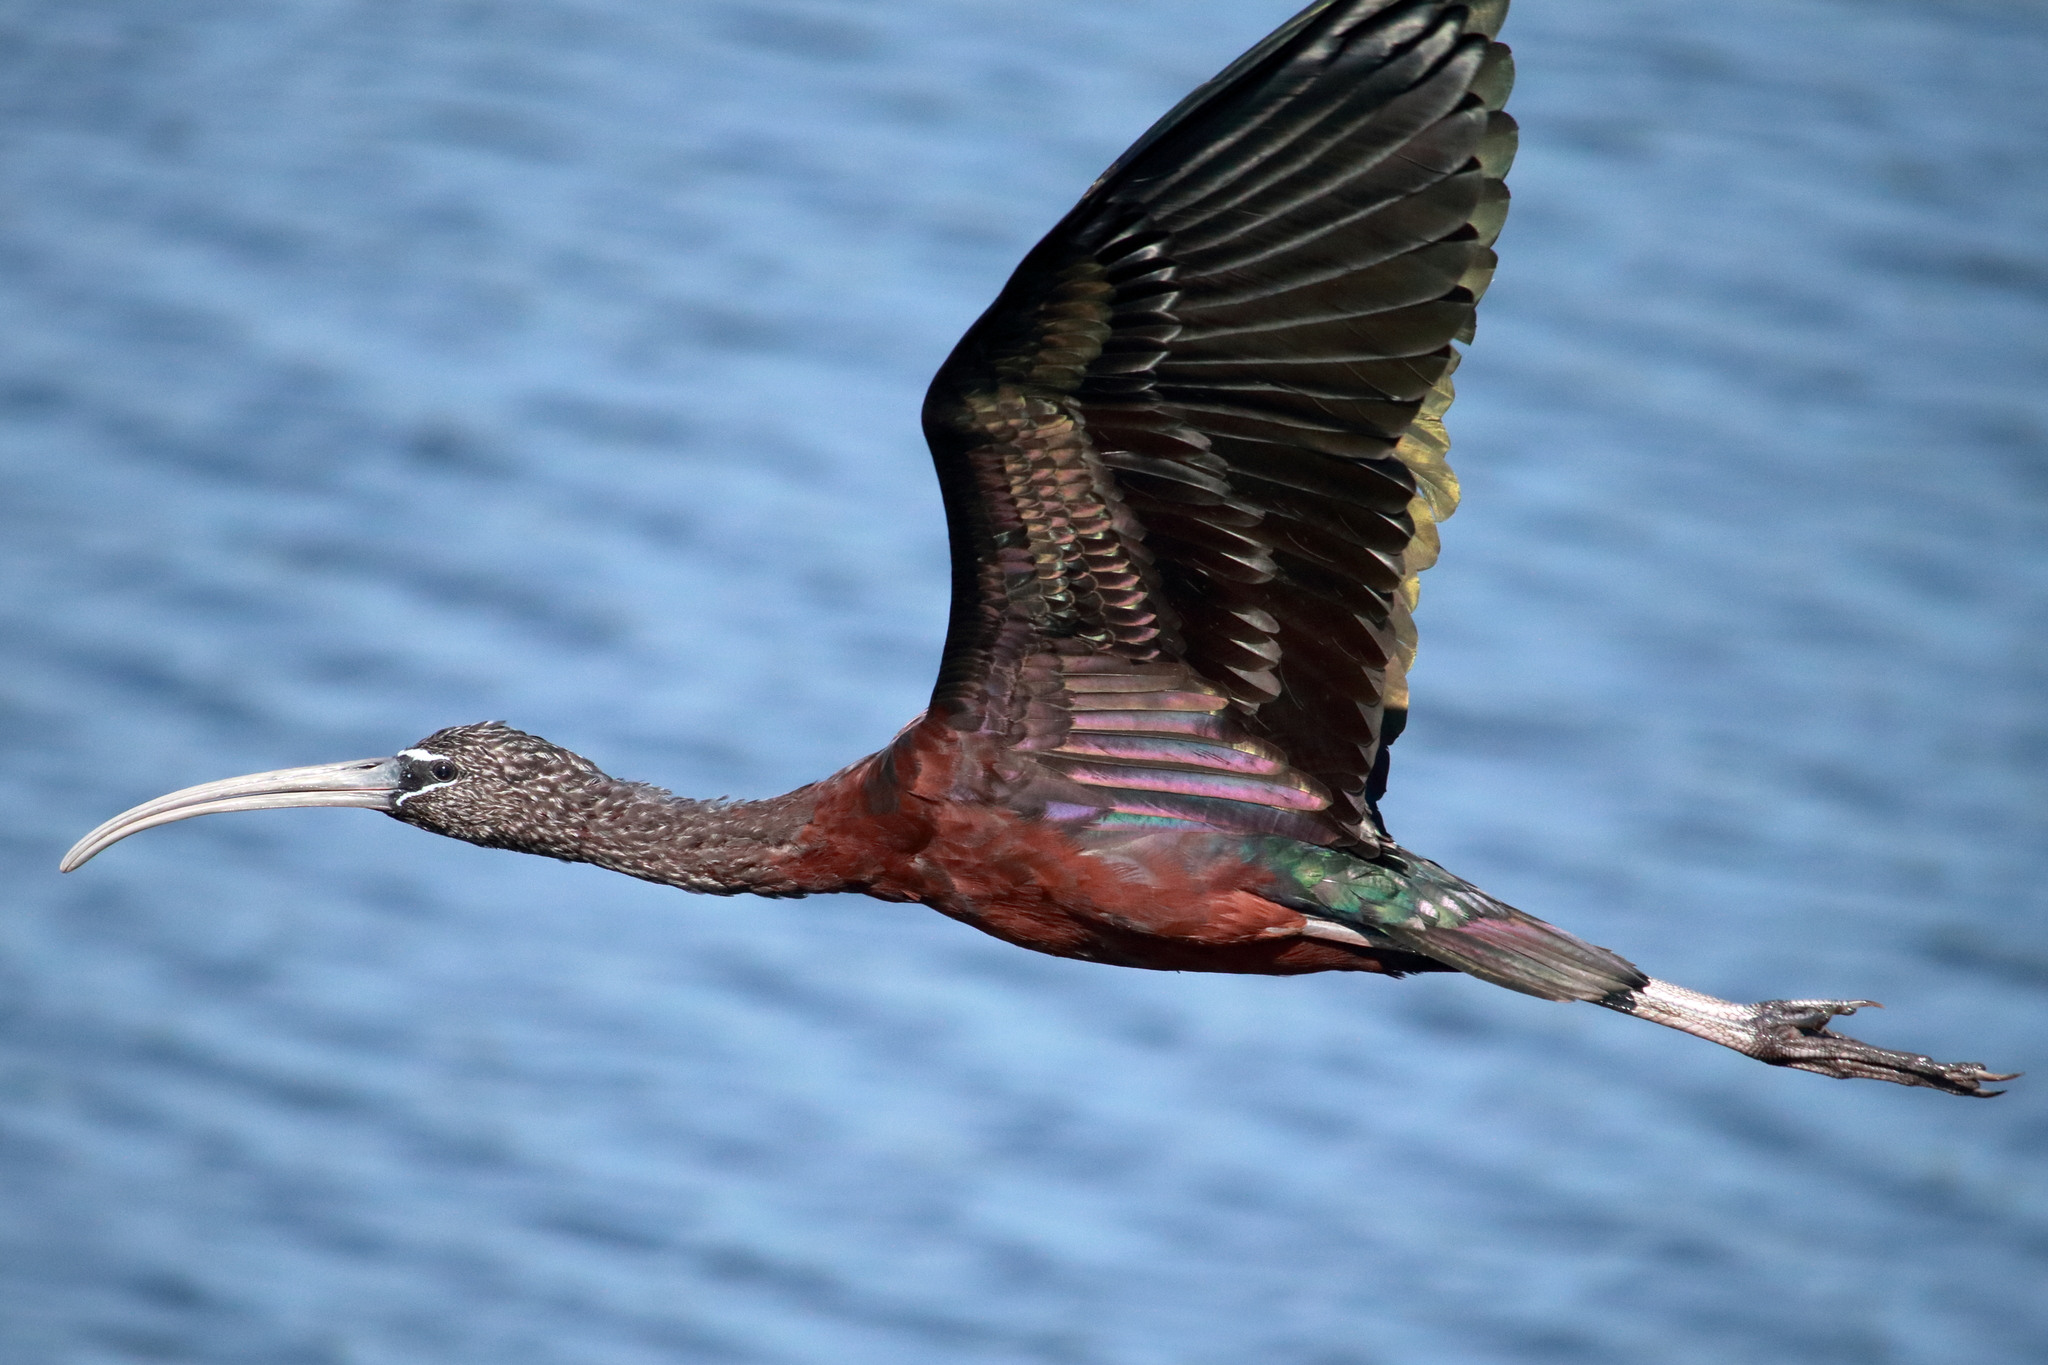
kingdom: Animalia
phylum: Chordata
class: Aves
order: Pelecaniformes
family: Threskiornithidae
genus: Plegadis
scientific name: Plegadis falcinellus
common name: Glossy ibis
